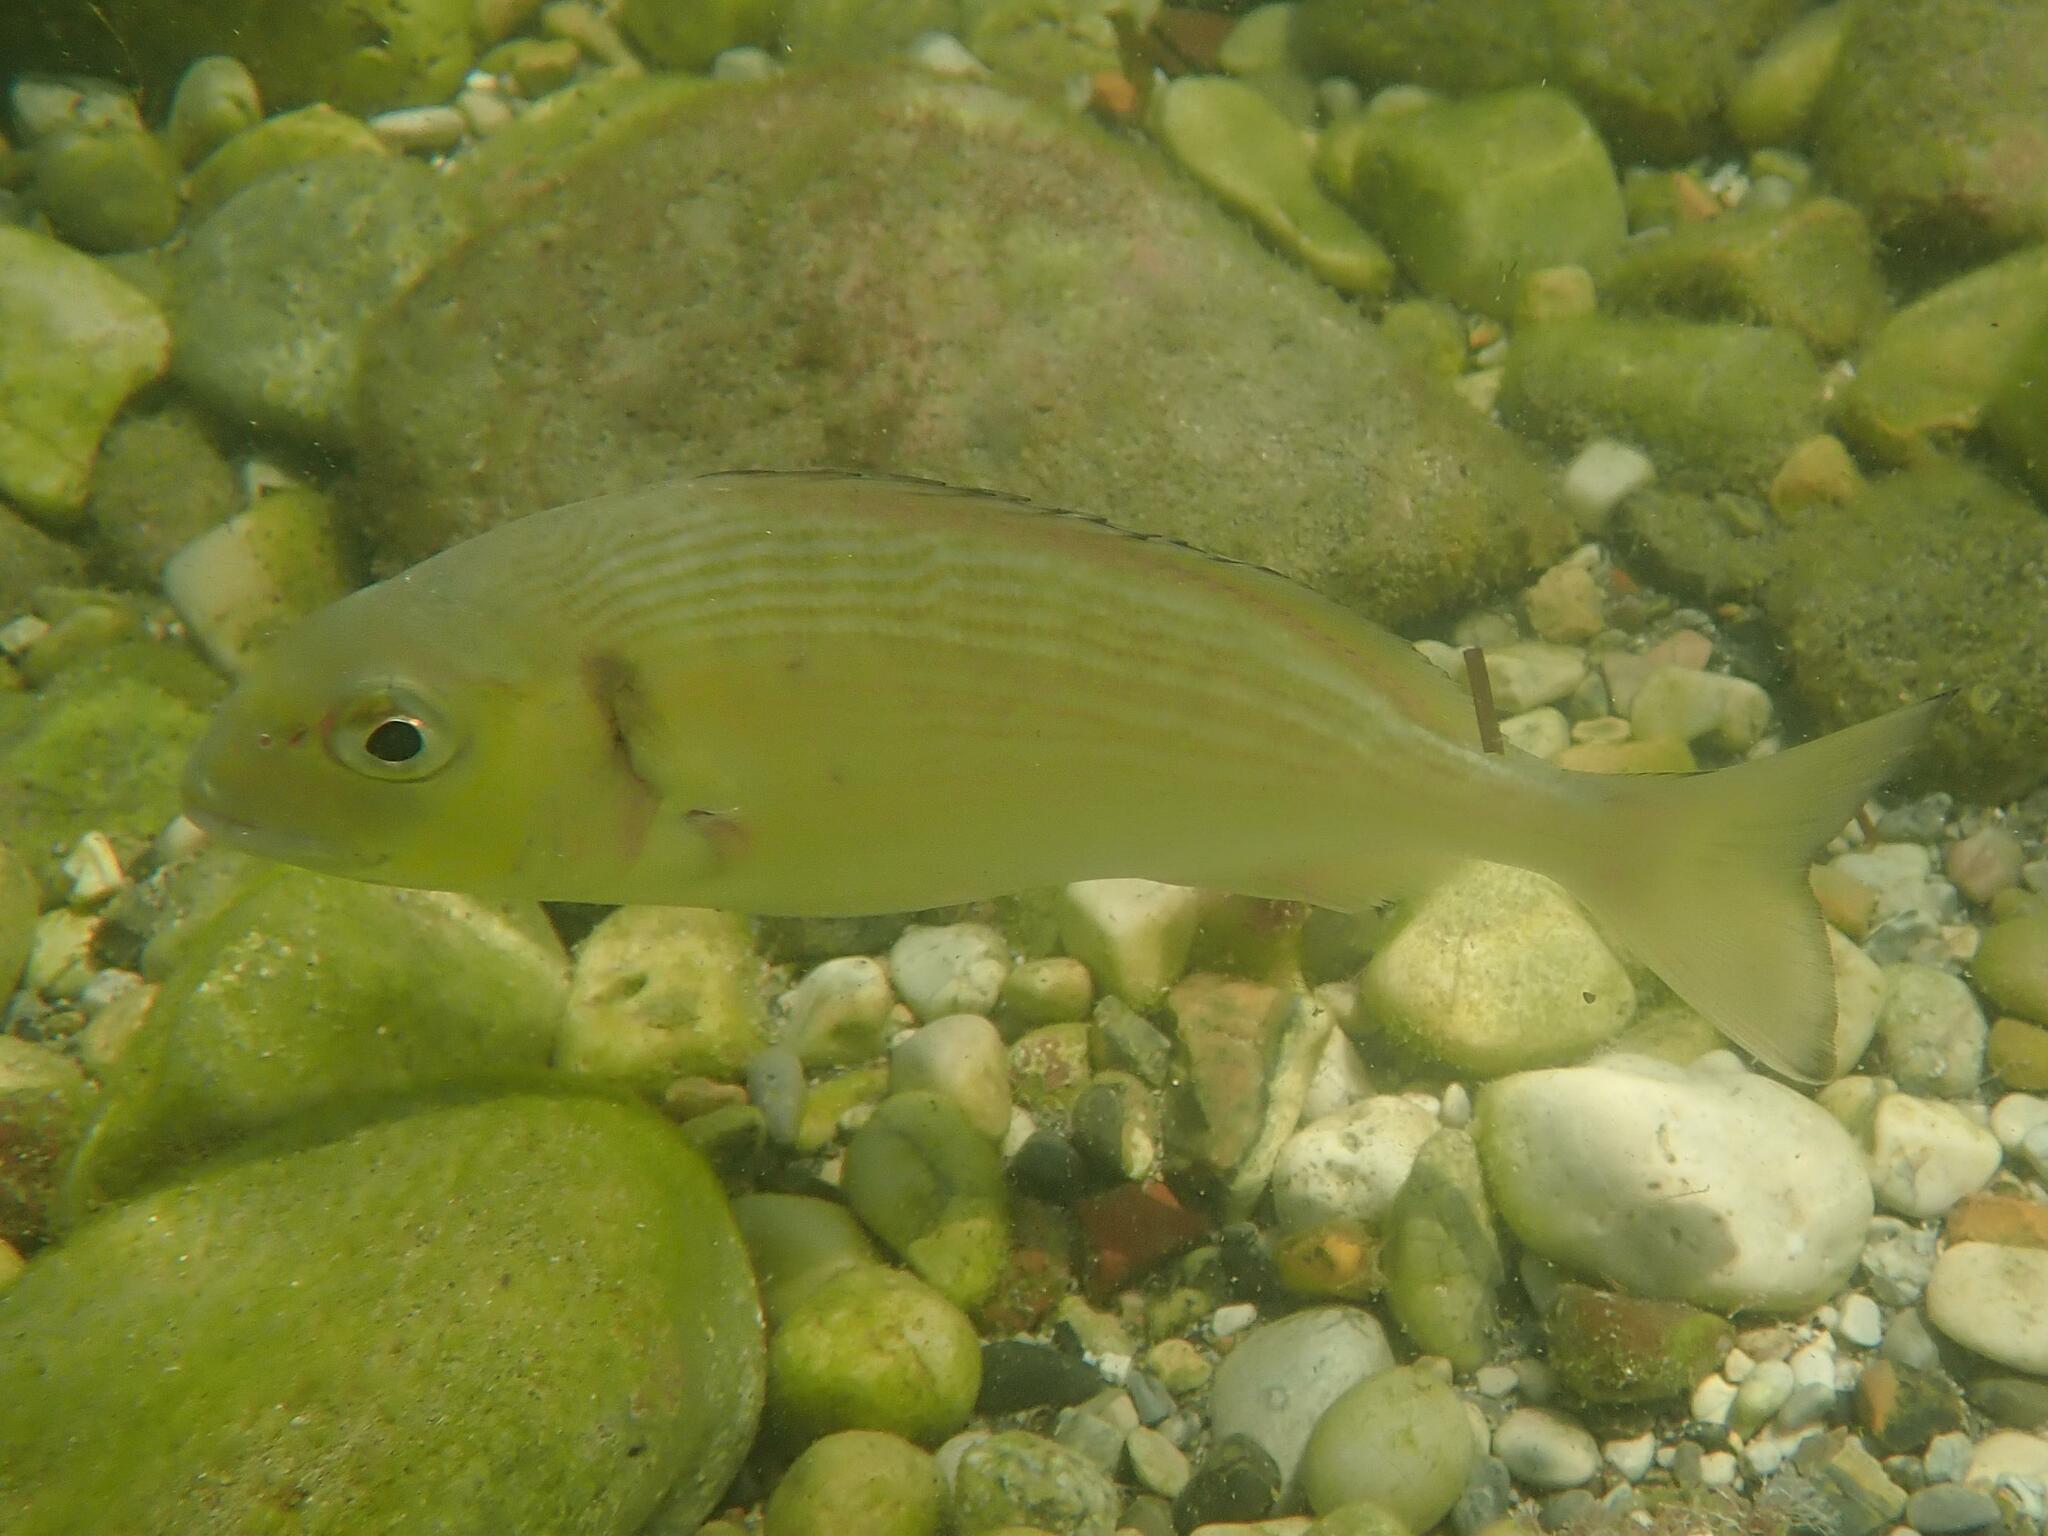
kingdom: Animalia
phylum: Chordata
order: Perciformes
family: Sparidae
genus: Sparus
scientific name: Sparus aurata
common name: Gilthead
